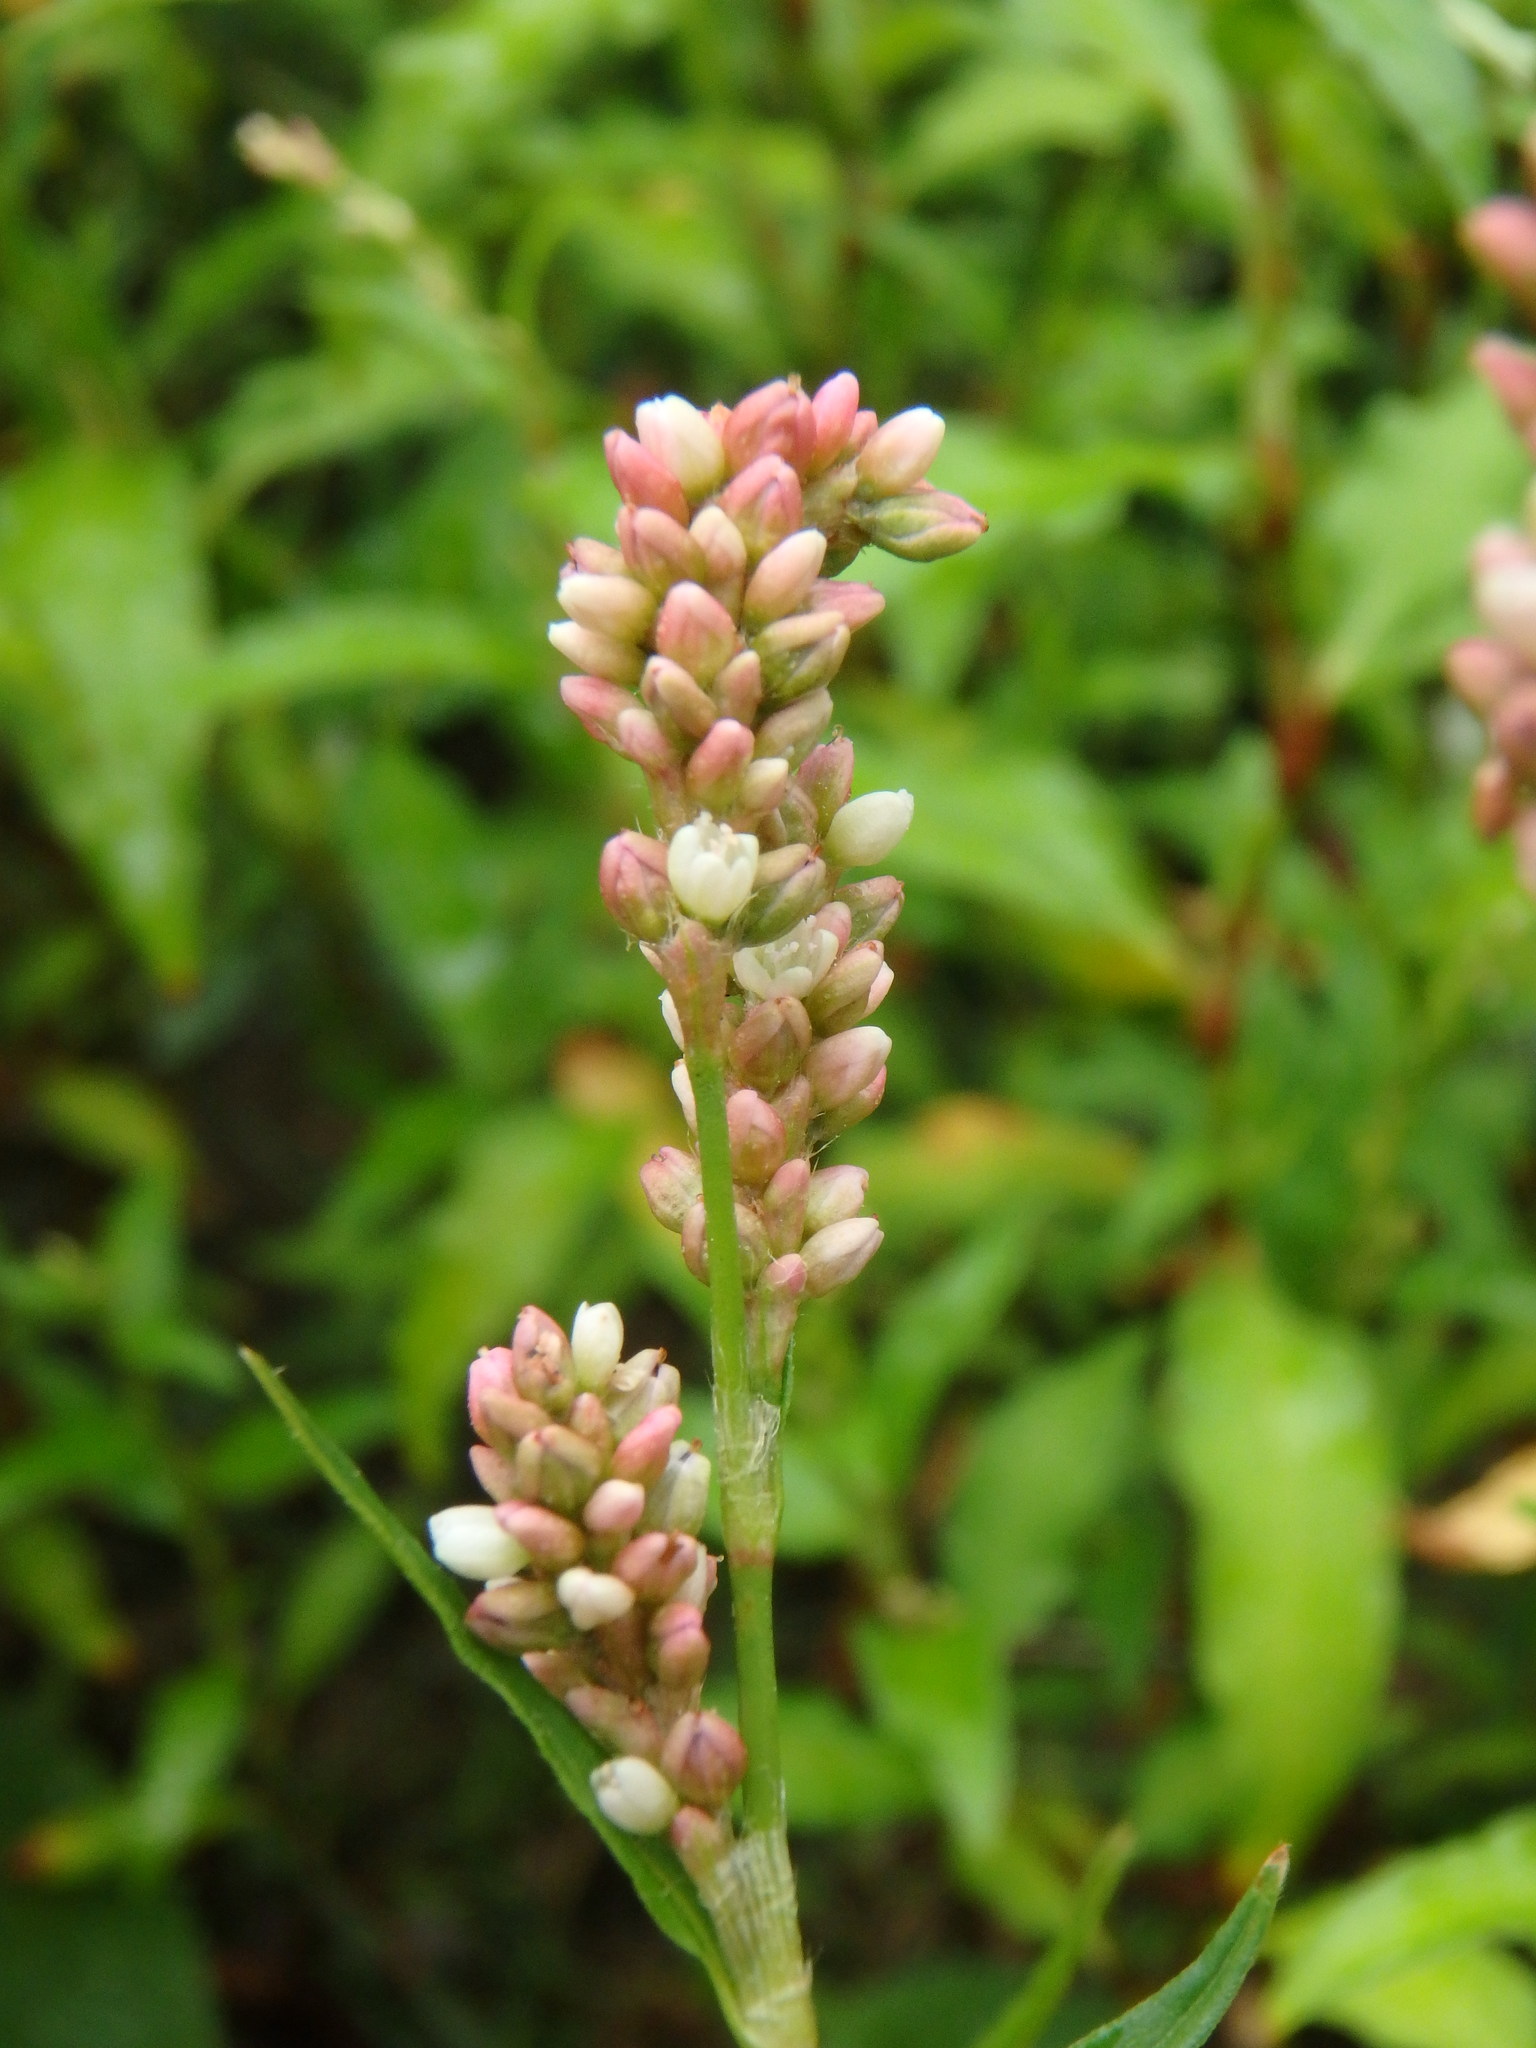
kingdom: Plantae
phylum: Tracheophyta
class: Magnoliopsida
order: Caryophyllales
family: Polygonaceae
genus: Persicaria
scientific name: Persicaria maculosa
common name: Redshank
